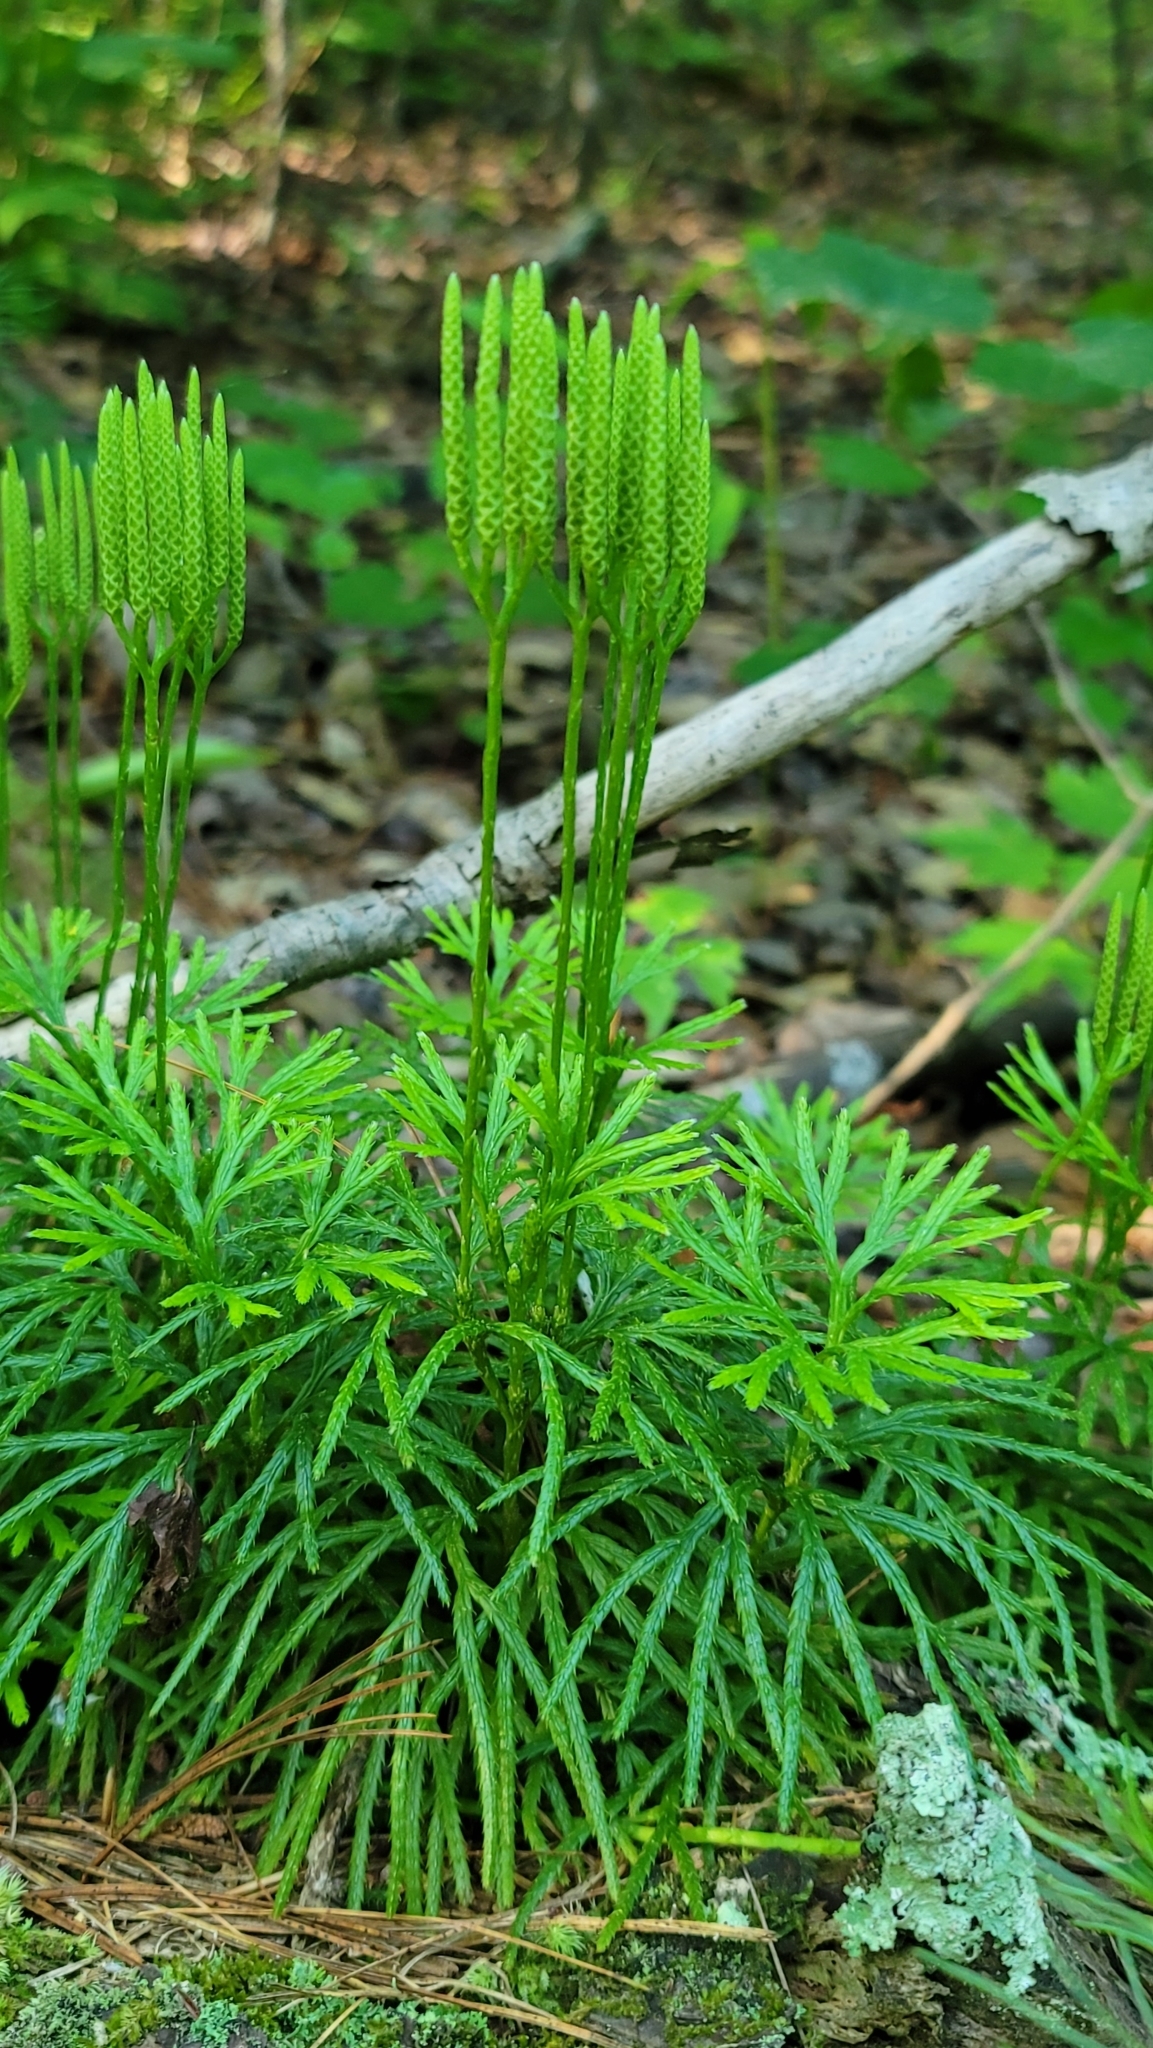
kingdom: Plantae
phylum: Tracheophyta
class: Lycopodiopsida
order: Lycopodiales
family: Lycopodiaceae
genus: Diphasiastrum
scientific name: Diphasiastrum digitatum
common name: Southern running-pine
